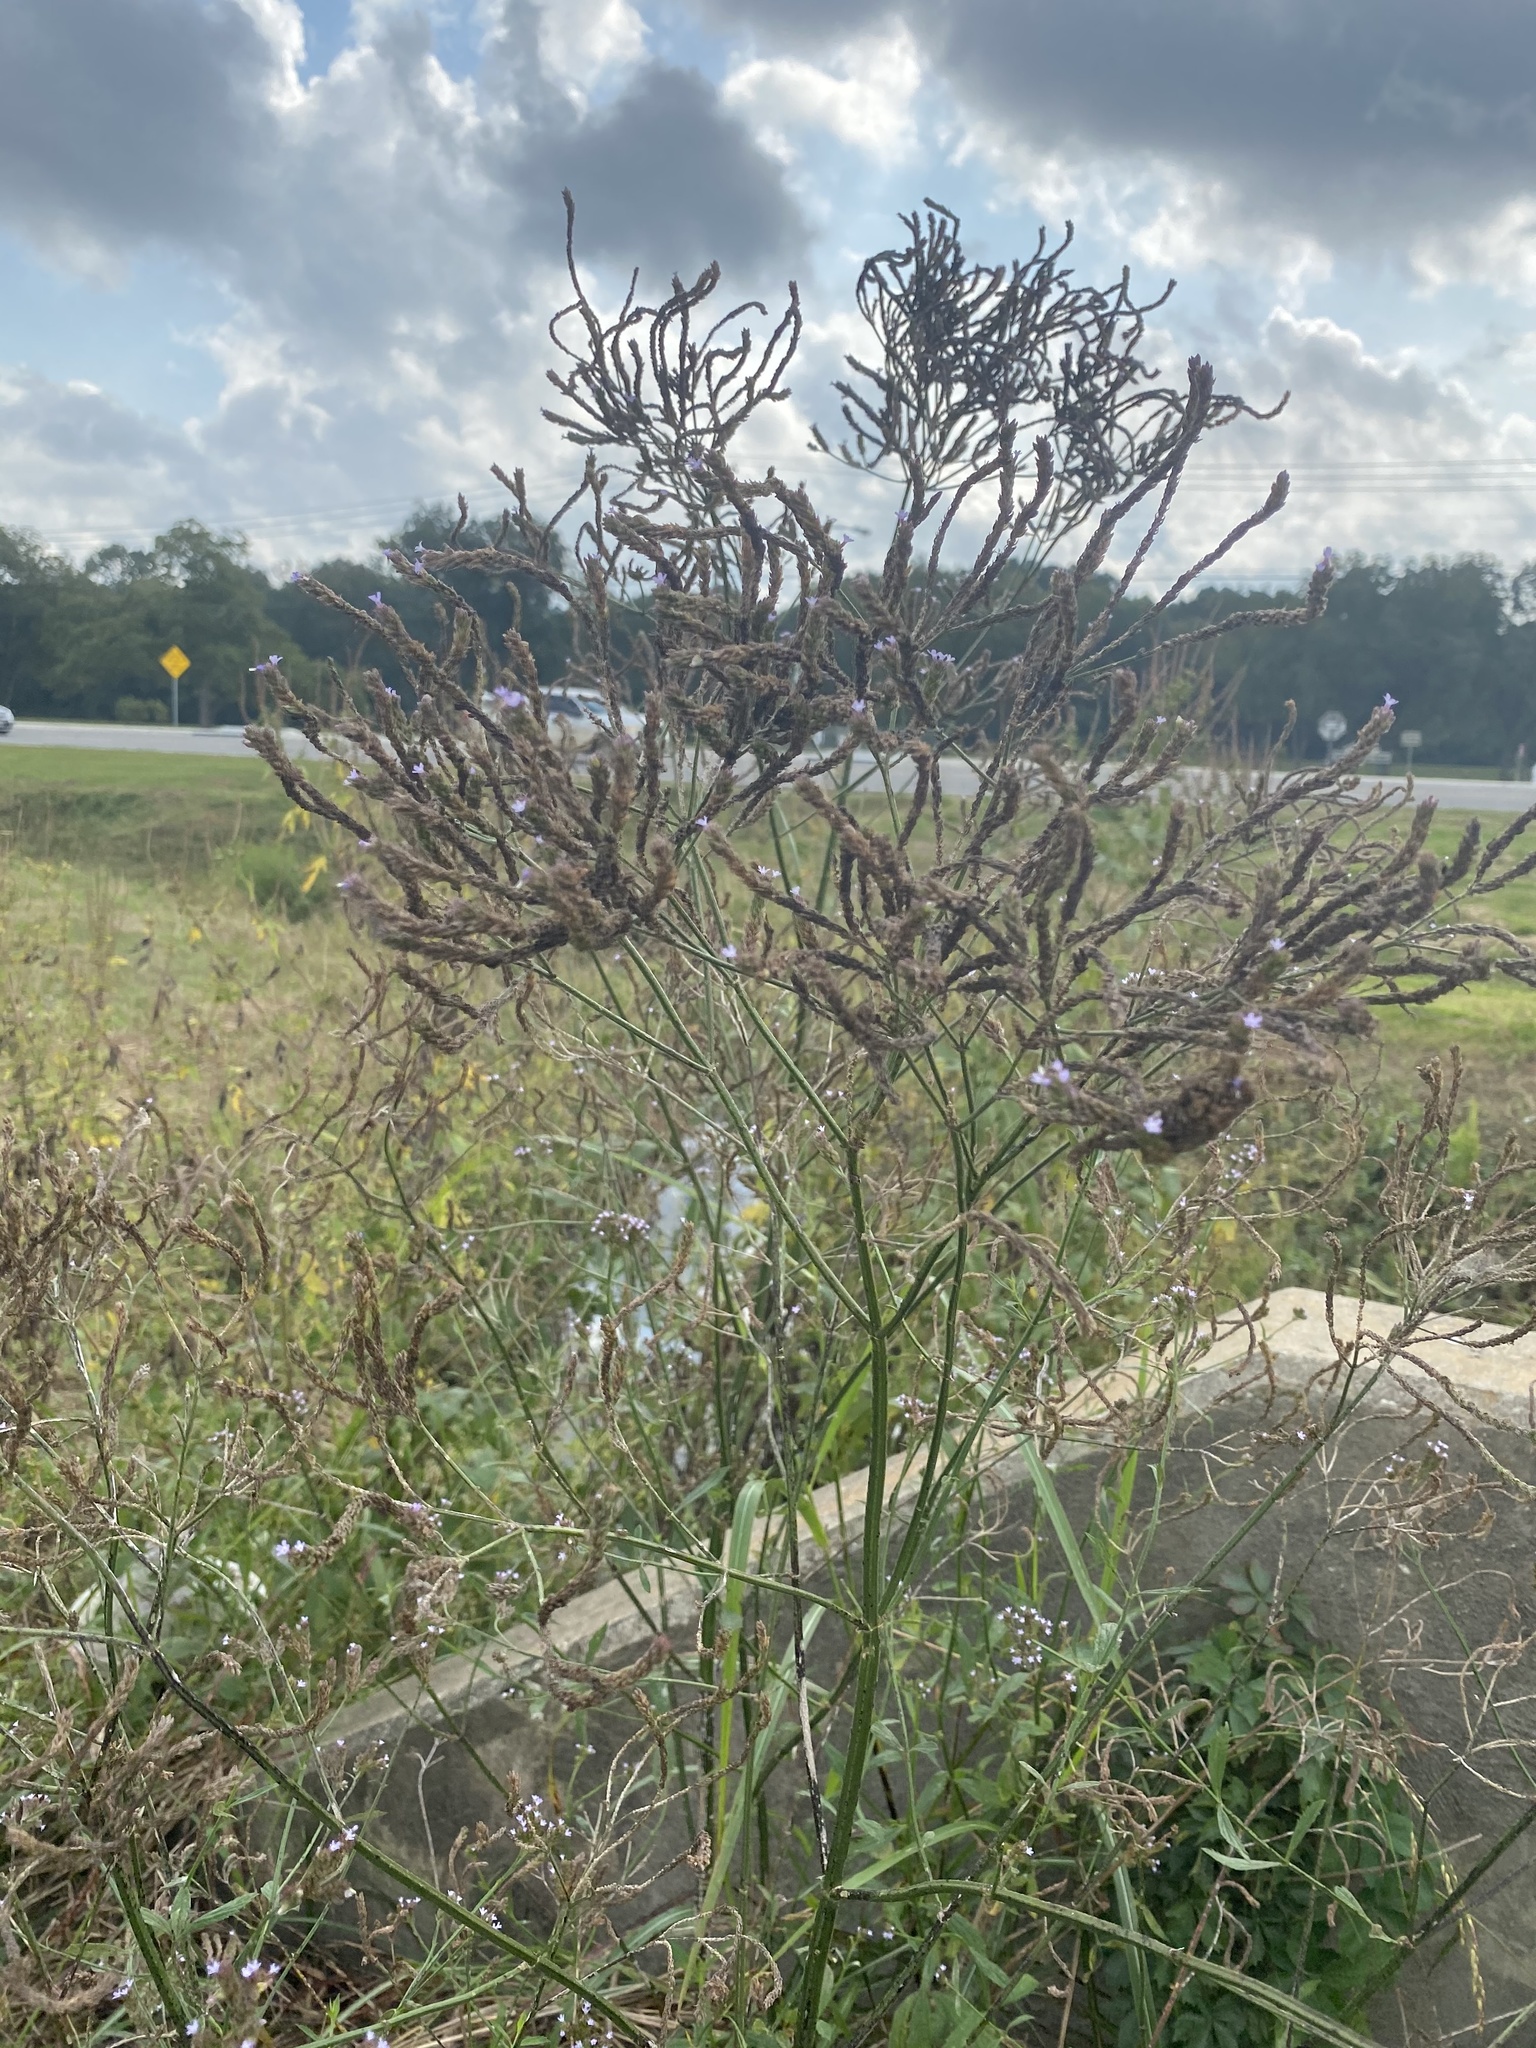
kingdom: Plantae
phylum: Tracheophyta
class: Magnoliopsida
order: Lamiales
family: Verbenaceae
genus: Verbena
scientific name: Verbena brasiliensis
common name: Brazilian vervain
